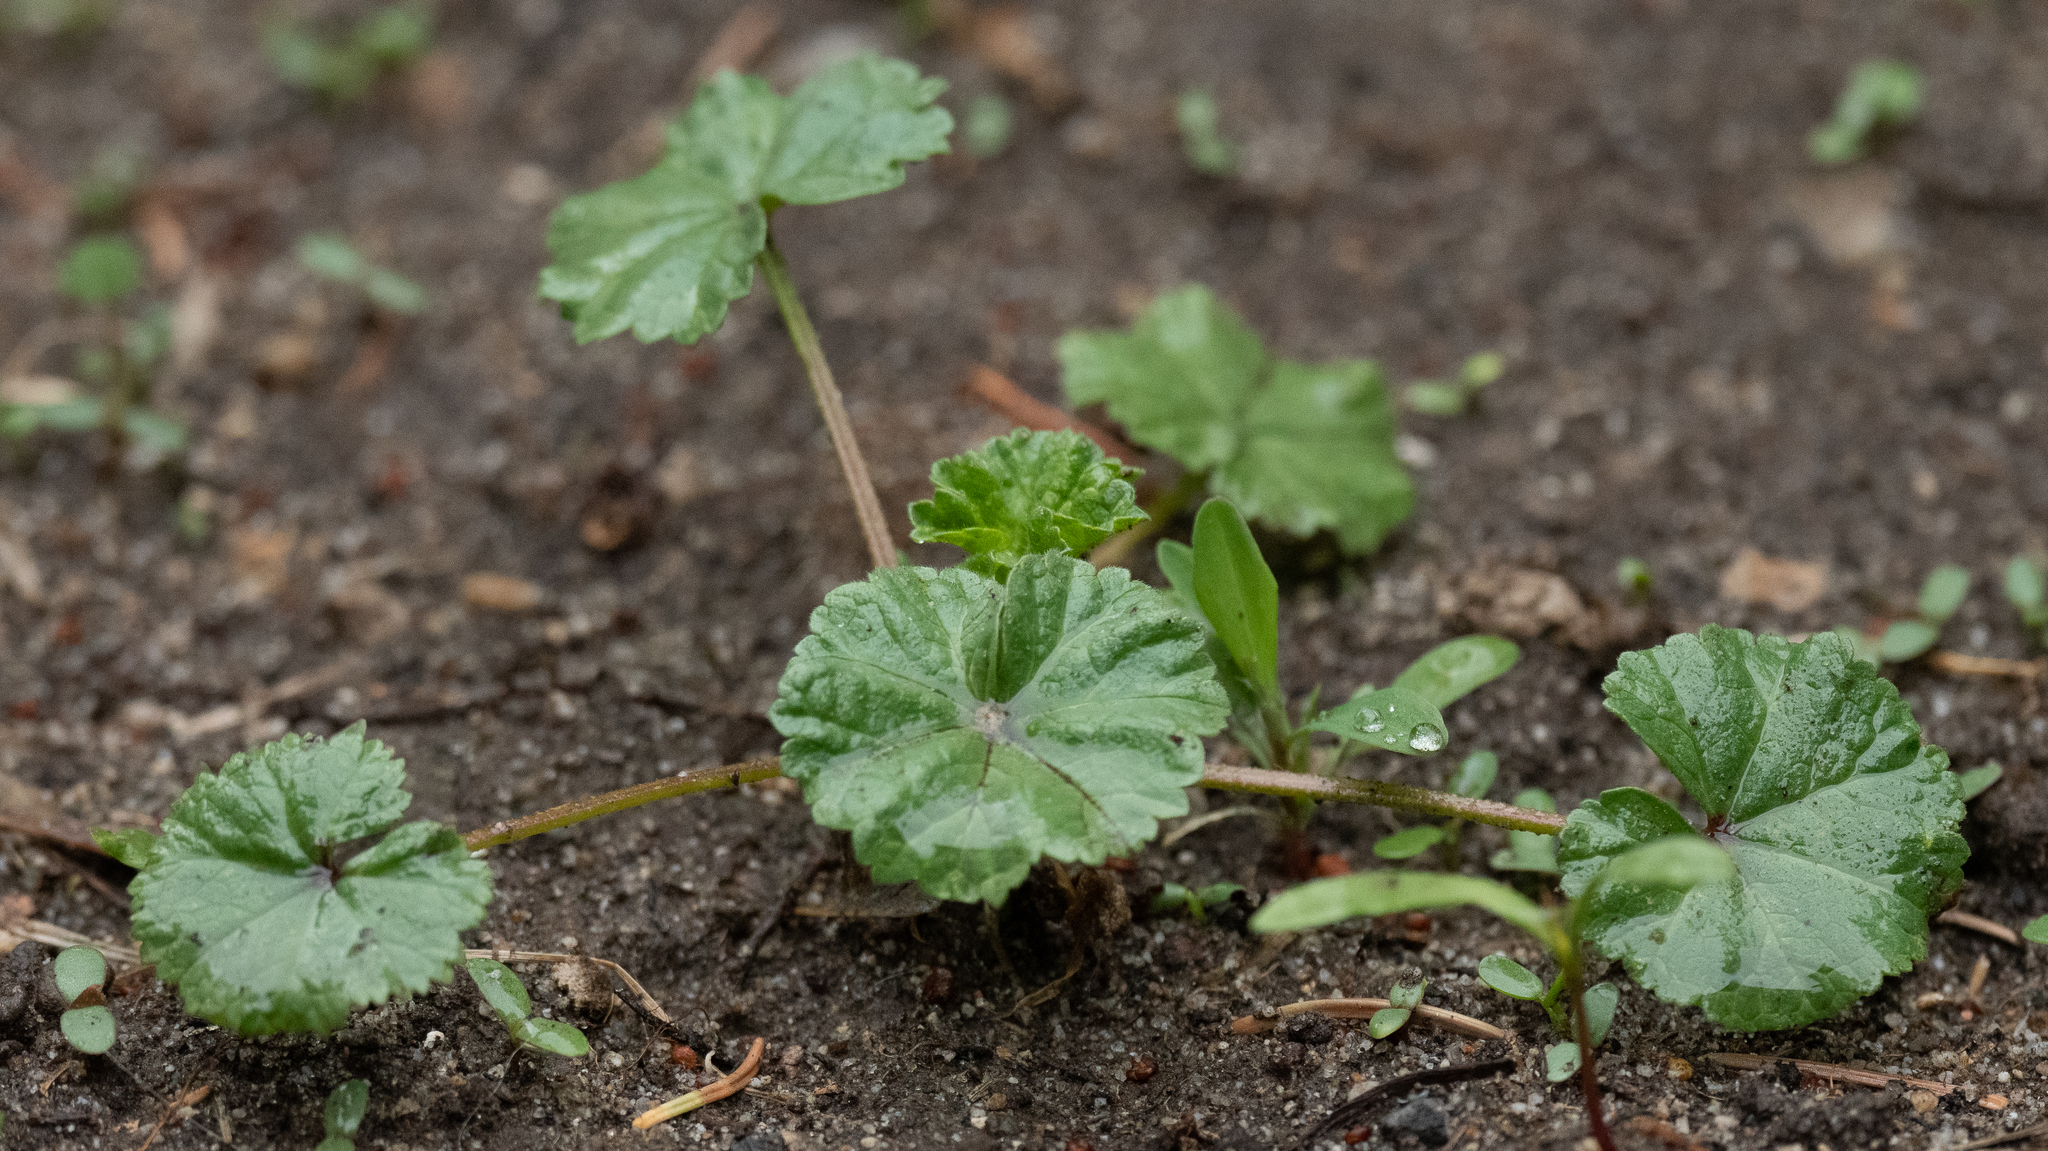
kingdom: Plantae
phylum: Tracheophyta
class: Magnoliopsida
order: Malvales
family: Malvaceae
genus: Malva
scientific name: Malva neglecta
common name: Common mallow
